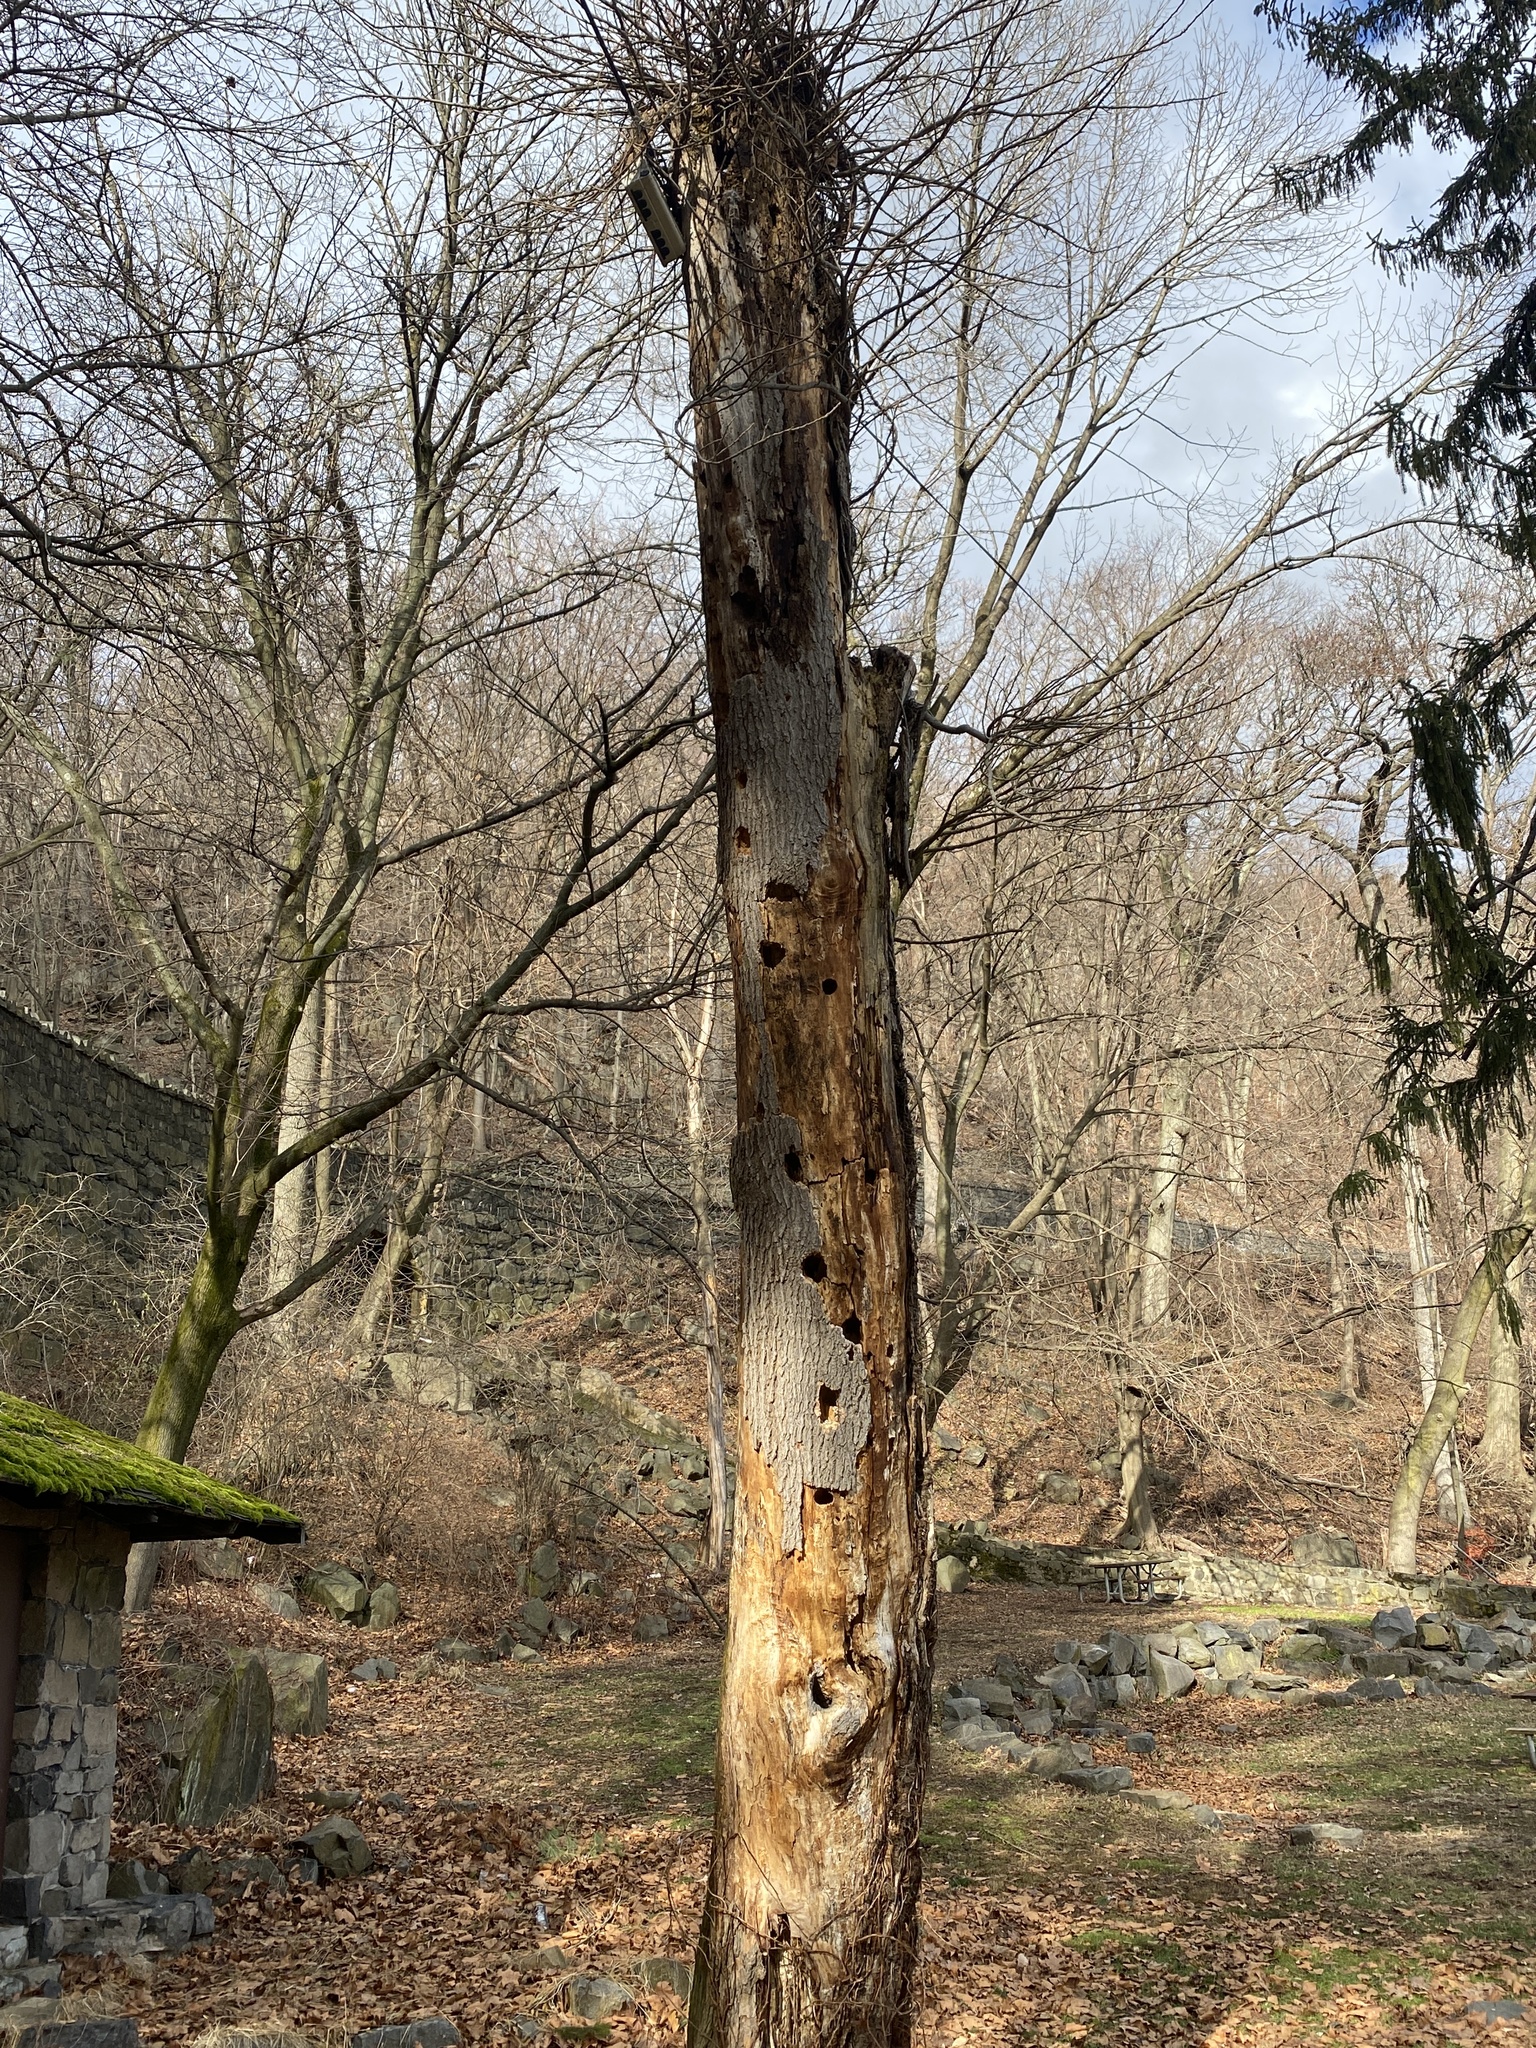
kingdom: Animalia
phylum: Chordata
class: Aves
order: Piciformes
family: Picidae
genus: Dryocopus
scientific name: Dryocopus pileatus
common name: Pileated woodpecker
